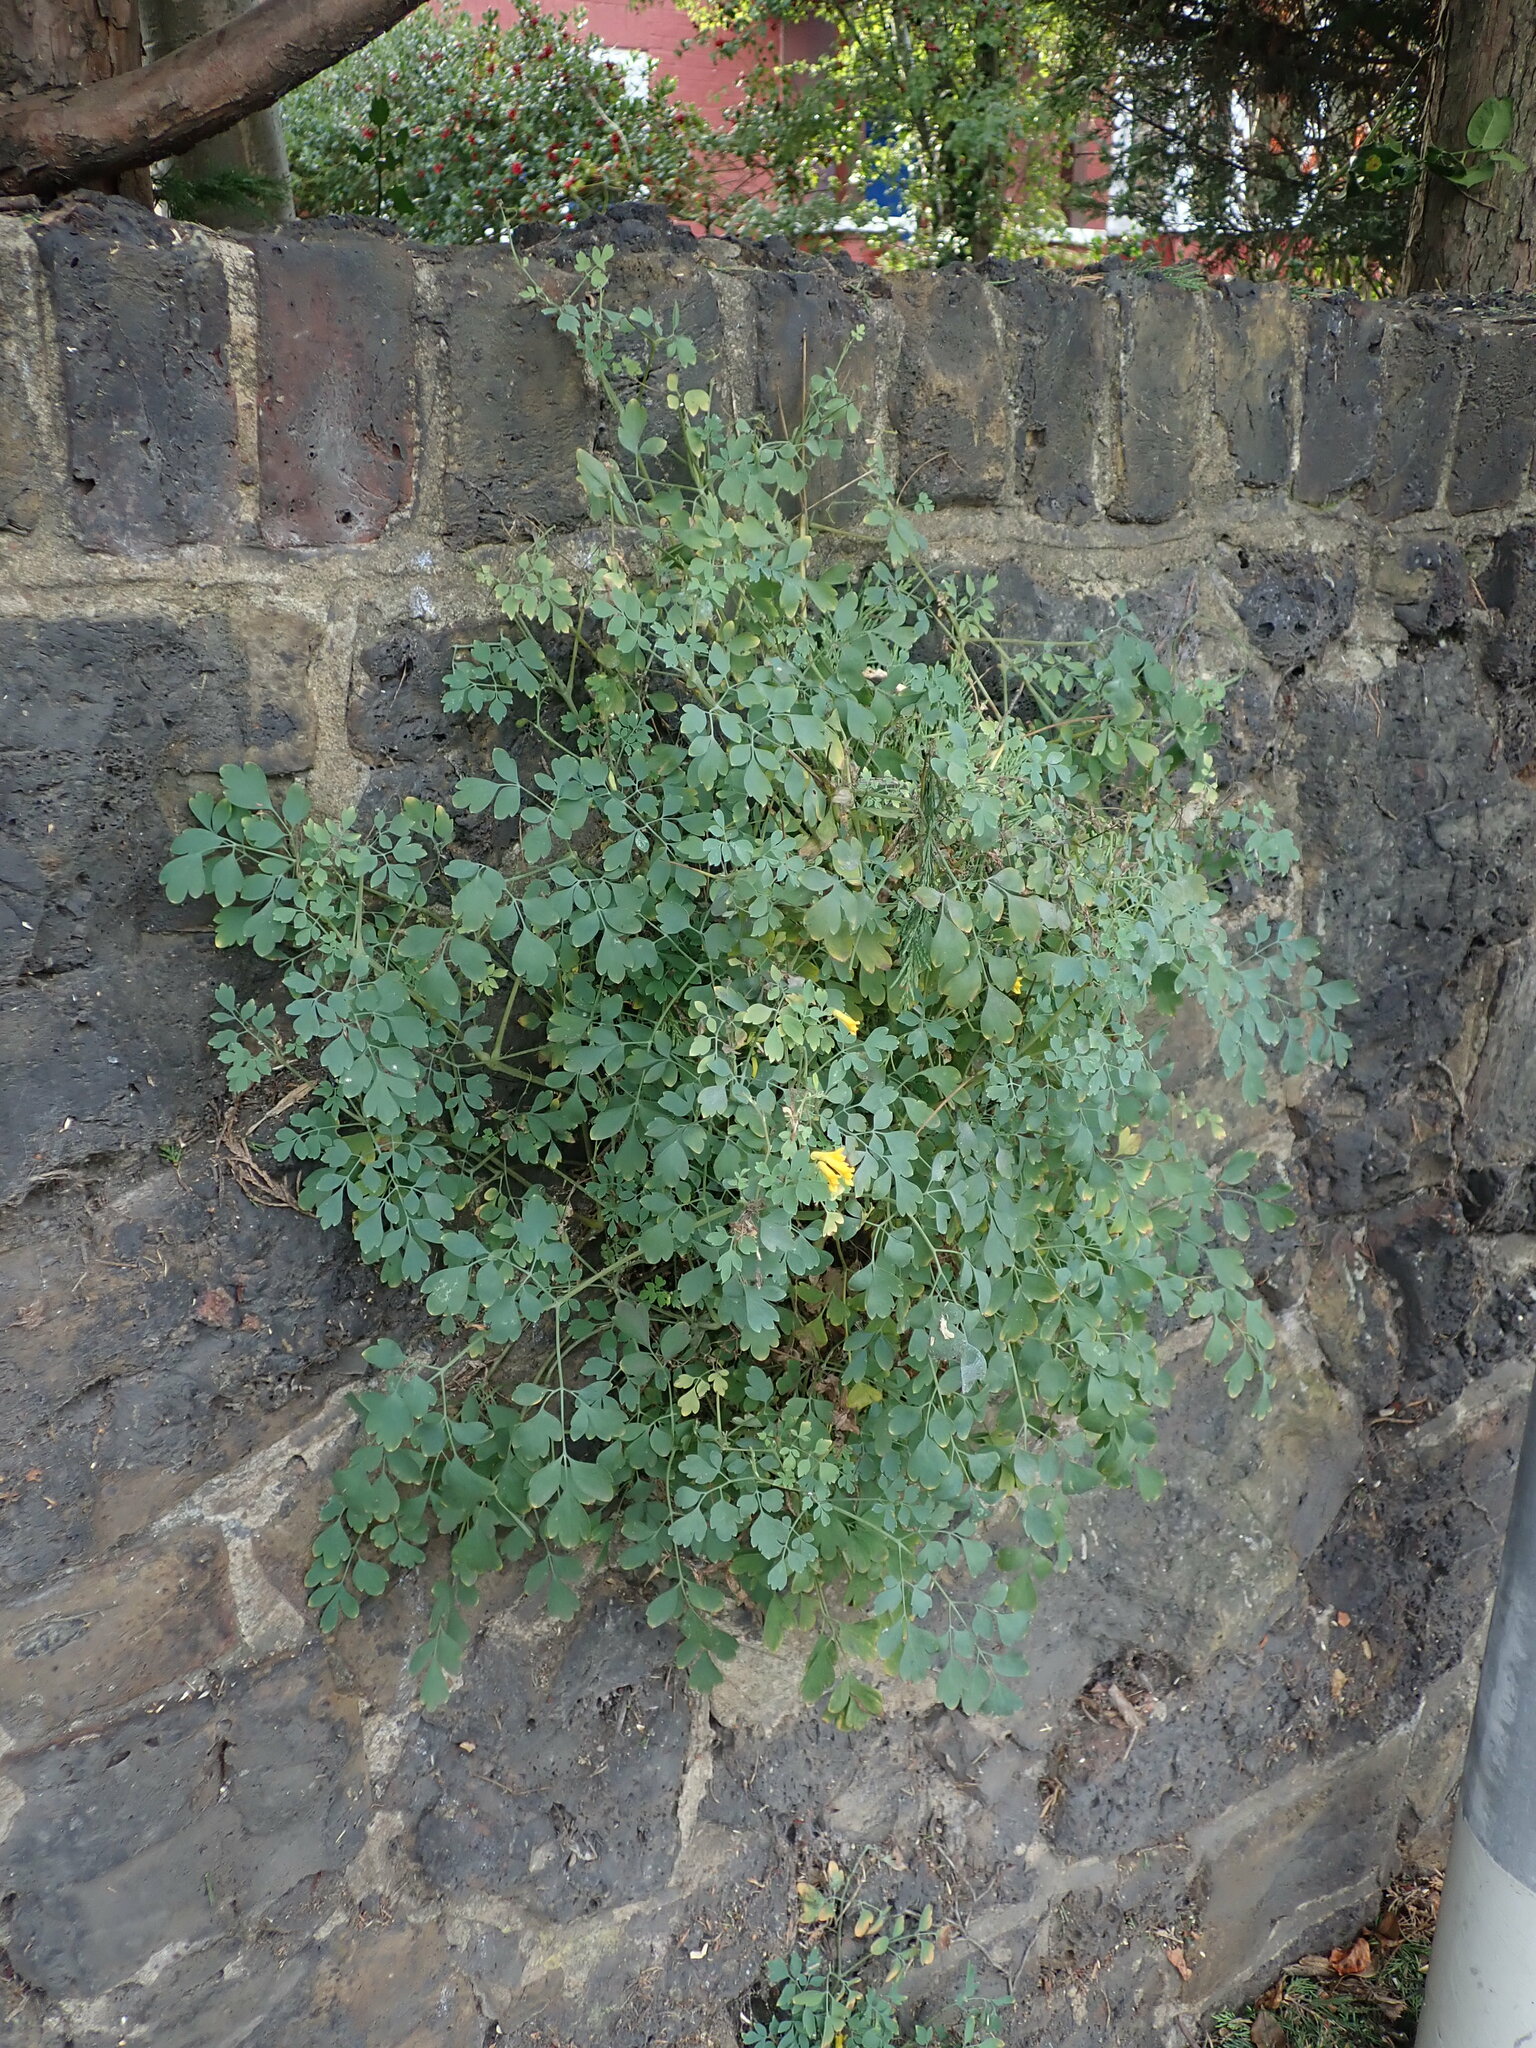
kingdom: Plantae
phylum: Tracheophyta
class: Magnoliopsida
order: Ranunculales
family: Papaveraceae
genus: Pseudofumaria
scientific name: Pseudofumaria lutea
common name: Yellow corydalis
